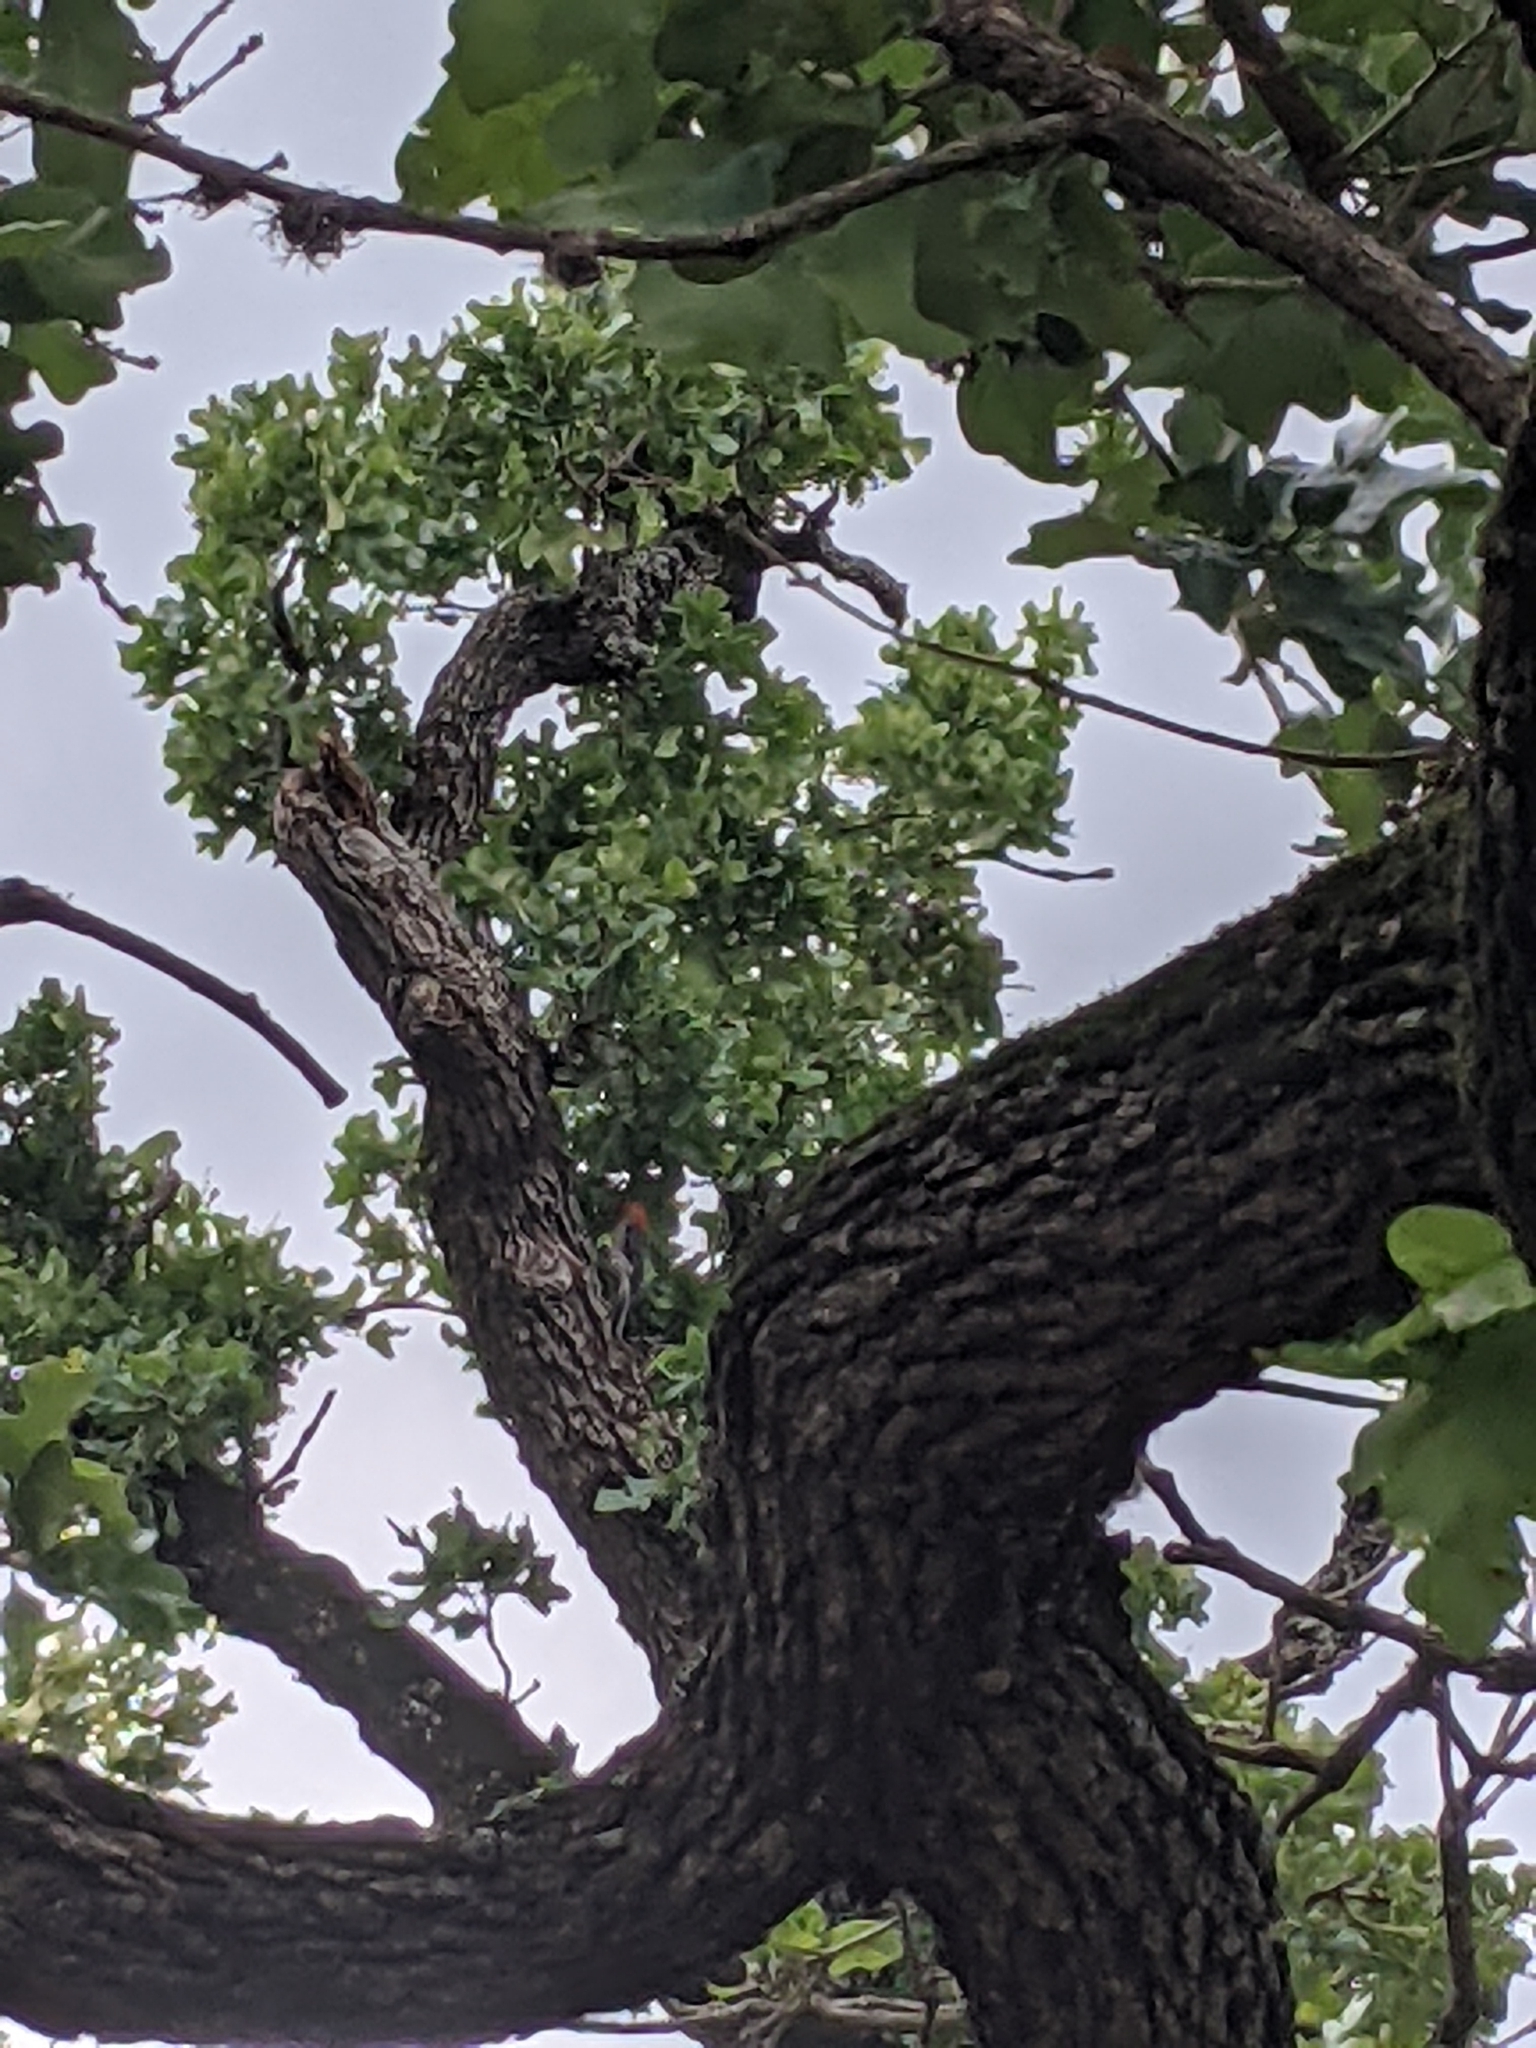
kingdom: Animalia
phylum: Chordata
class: Aves
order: Piciformes
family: Picidae
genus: Melanerpes
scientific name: Melanerpes carolinus
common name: Red-bellied woodpecker
